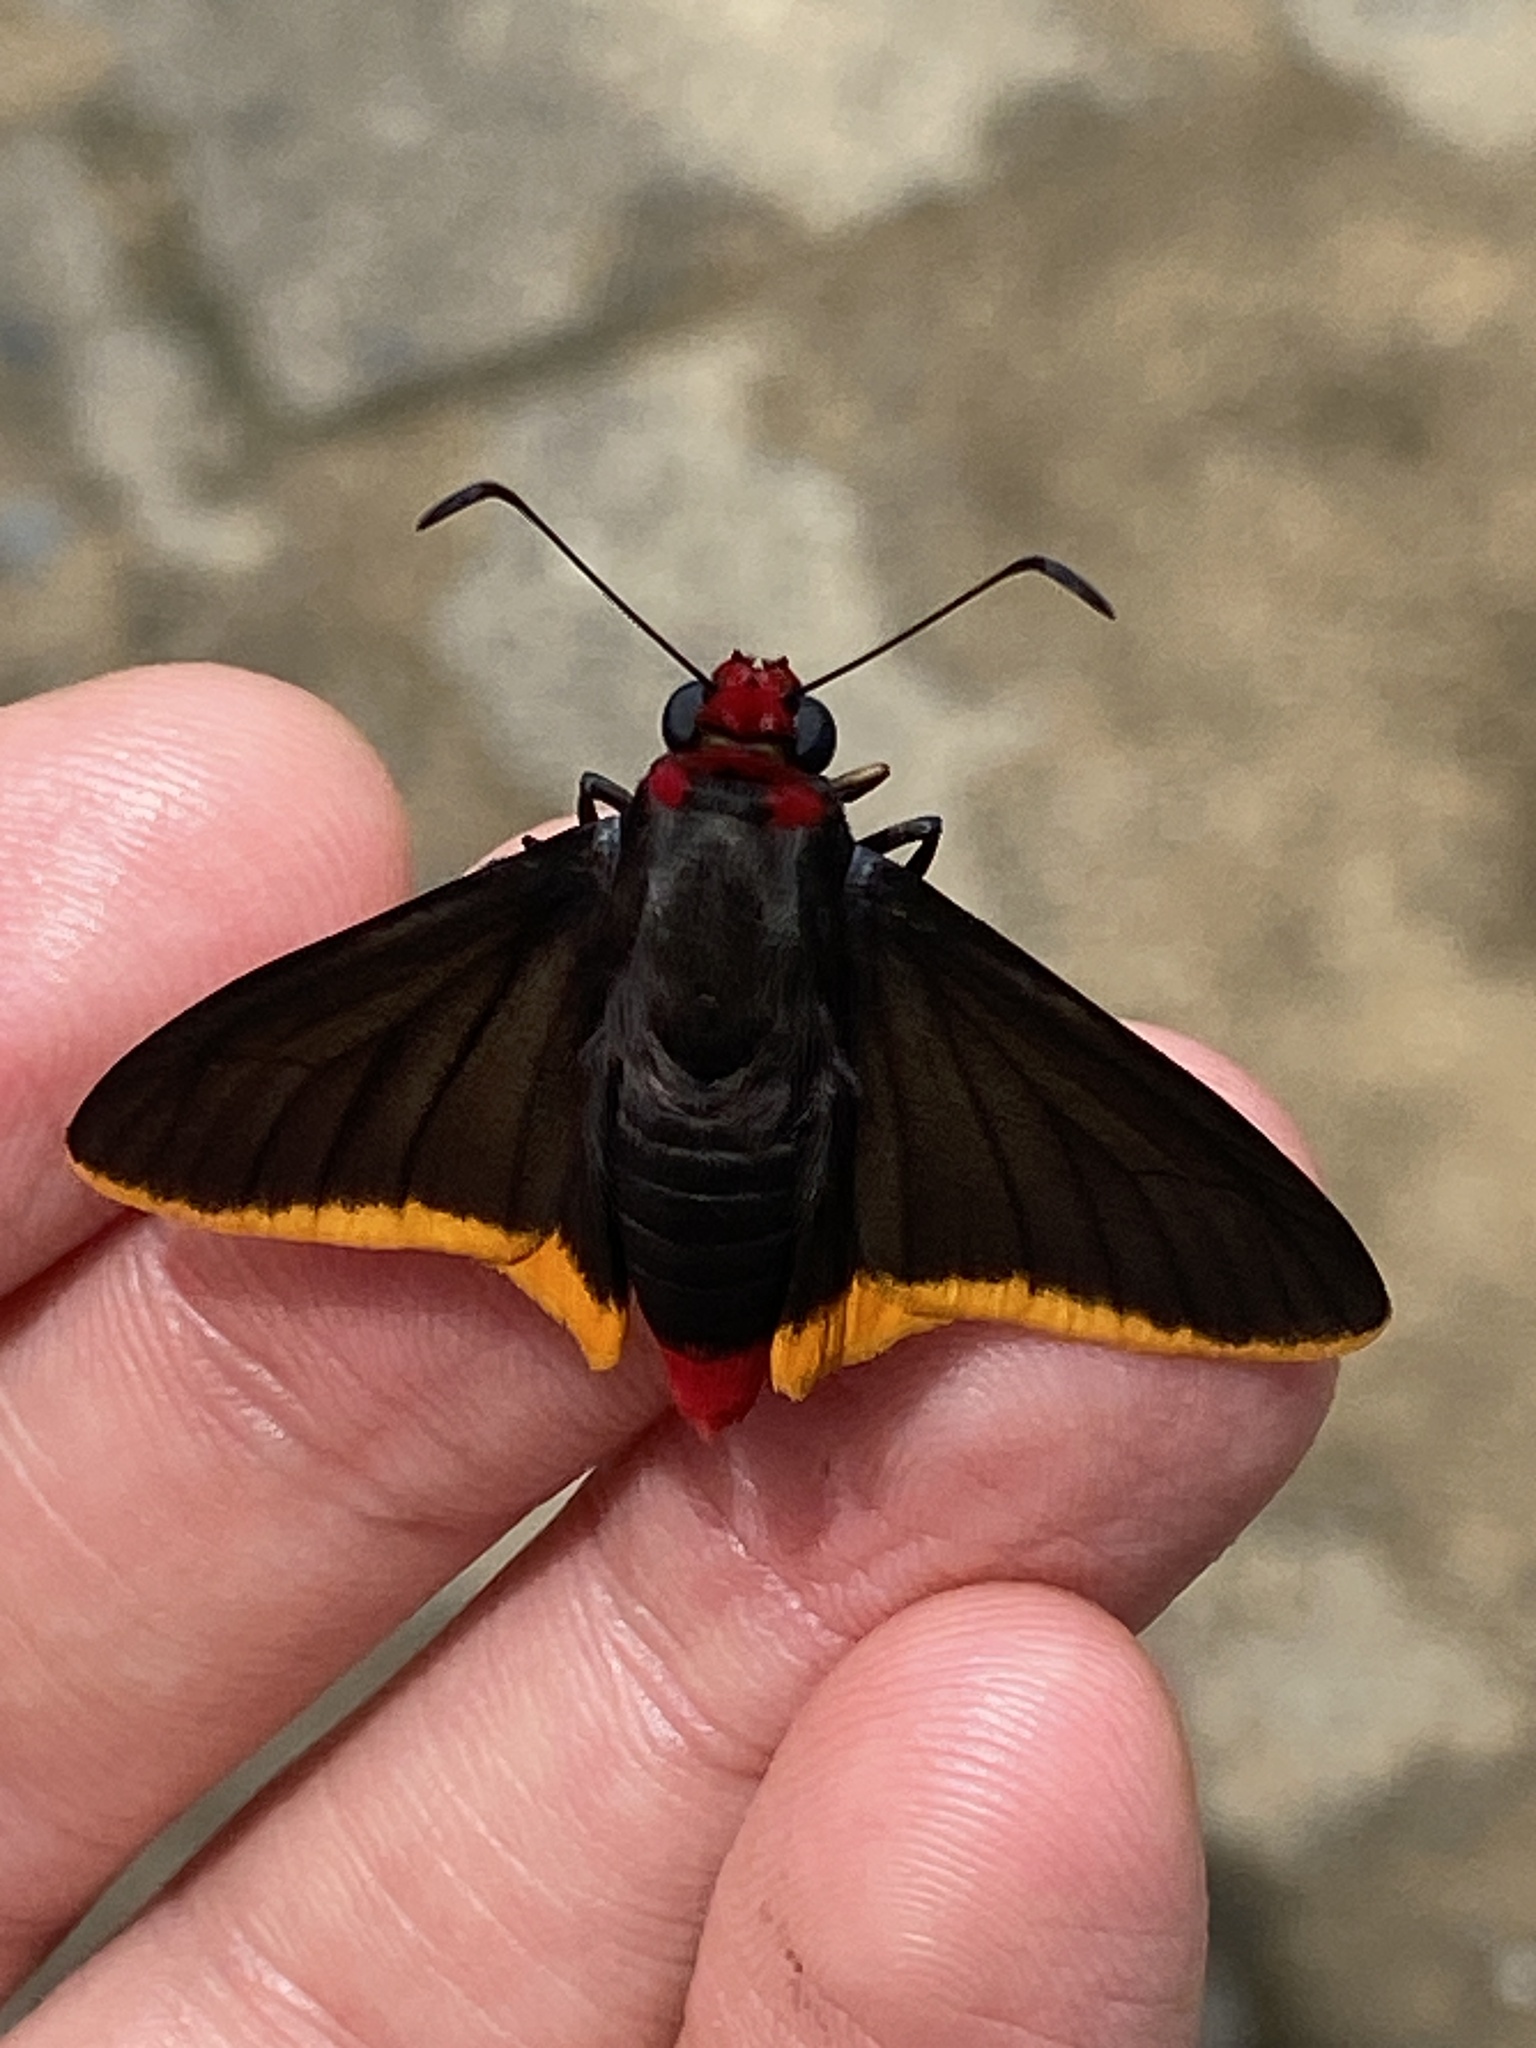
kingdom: Animalia
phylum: Arthropoda
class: Insecta
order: Lepidoptera
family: Hesperiidae
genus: Pyrrhopyge
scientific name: Pyrrhopyge amyclas
